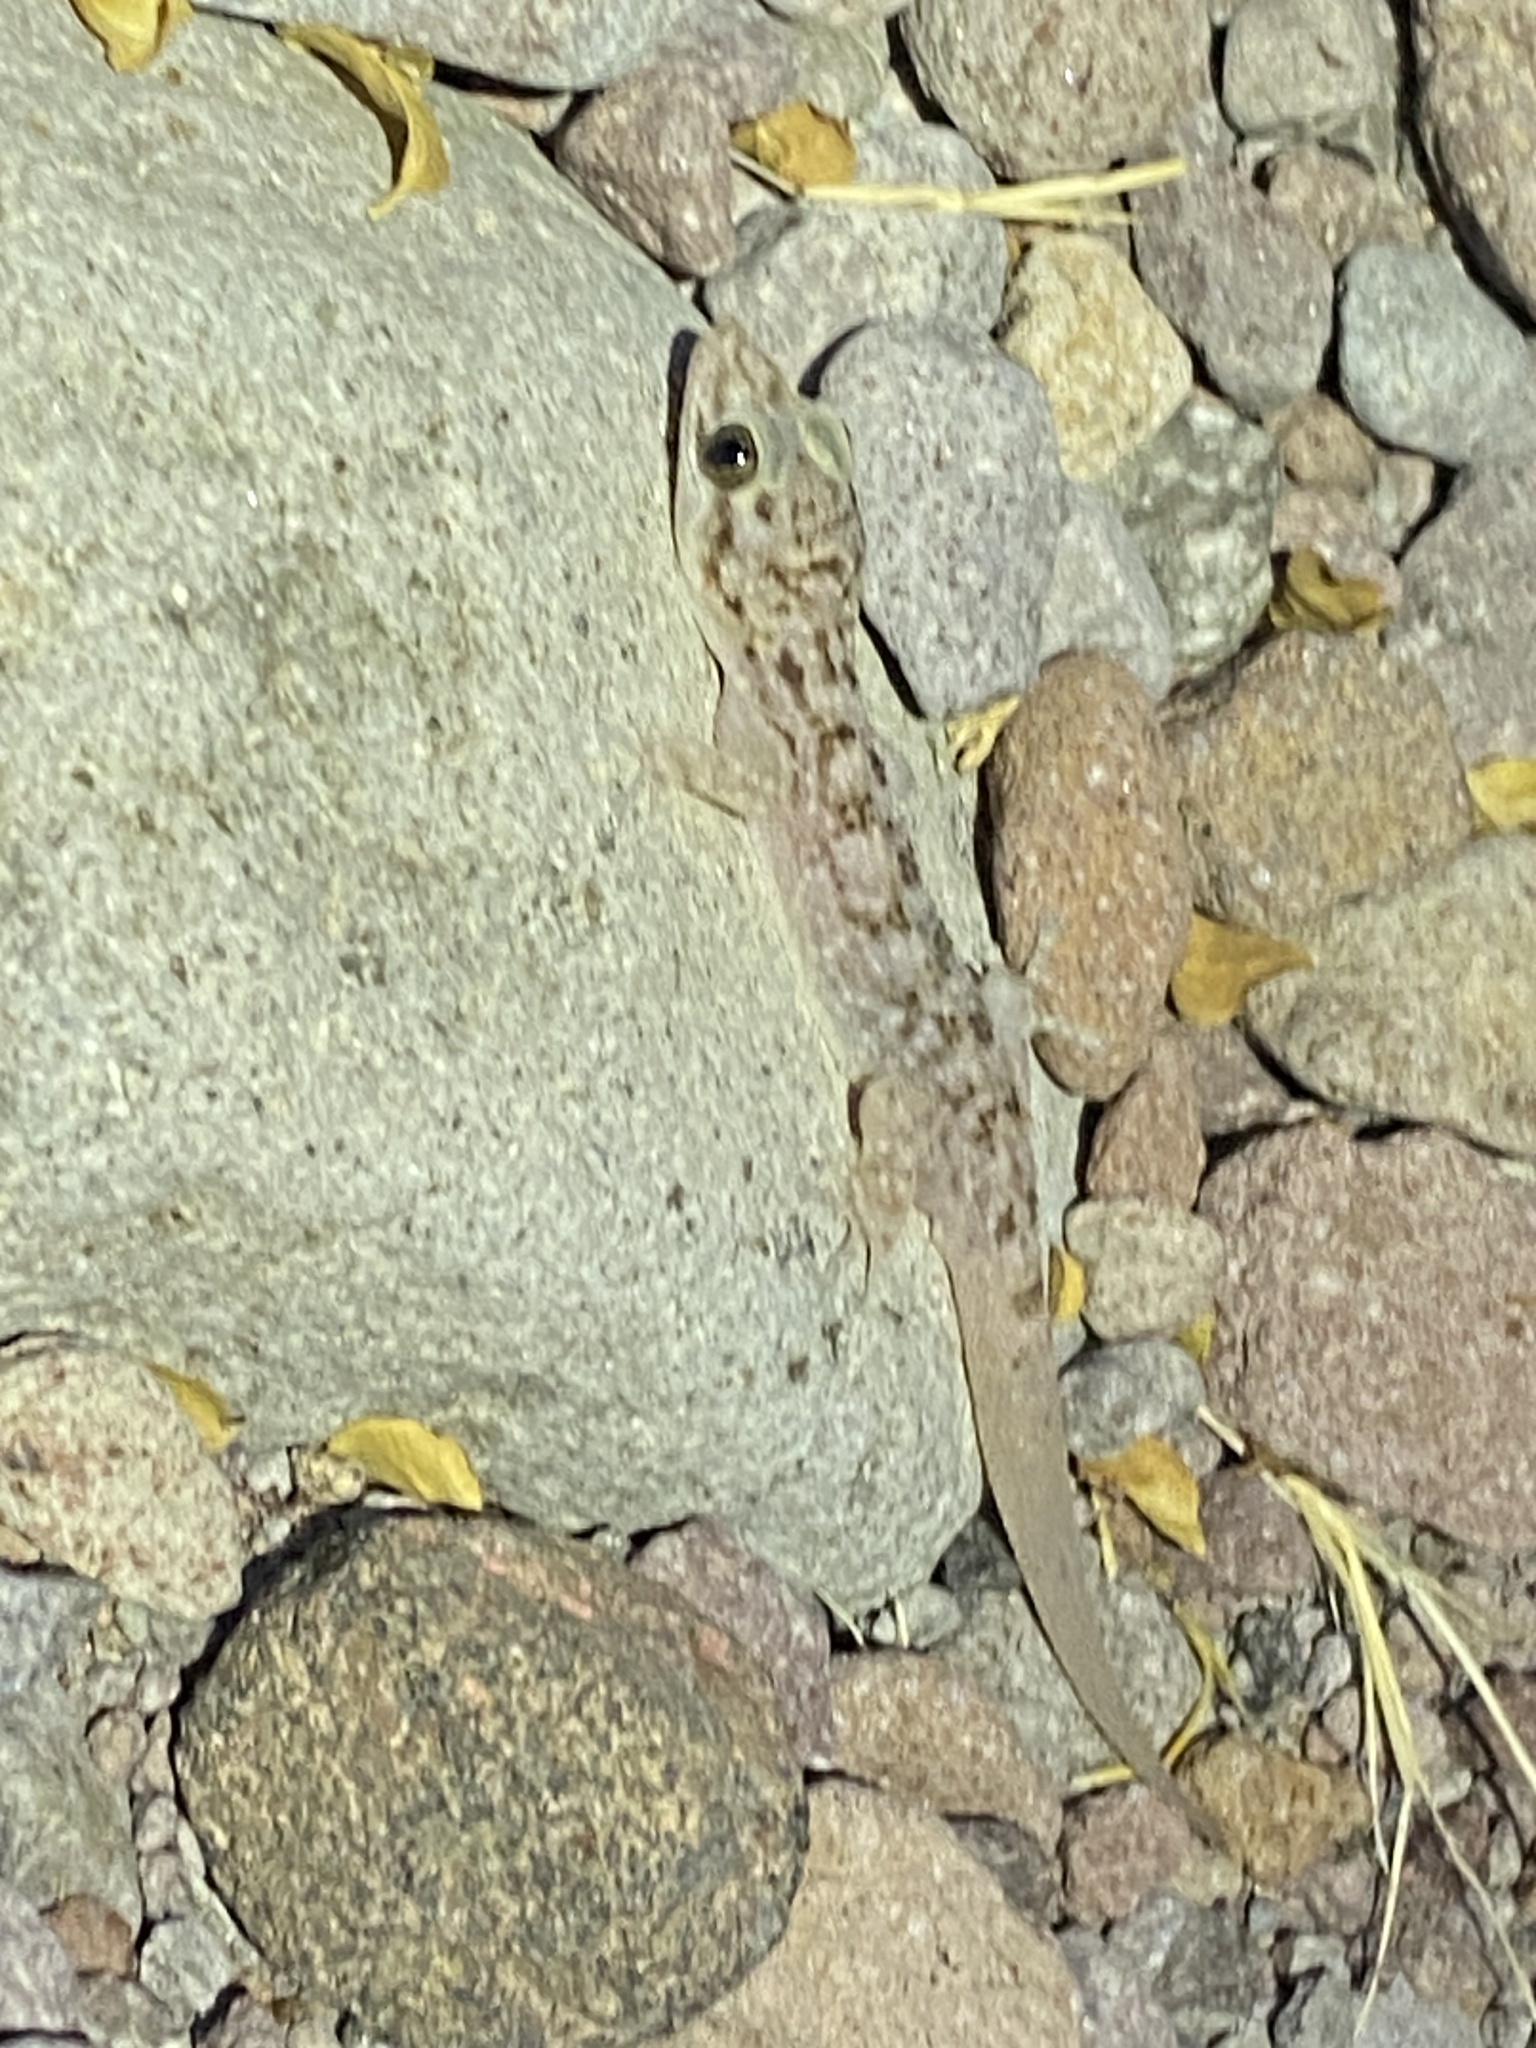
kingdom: Animalia
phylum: Chordata
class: Squamata
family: Phyllodactylidae
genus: Phyllodactylus
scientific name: Phyllodactylus nocticolus
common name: Peninsula leaf-toed gecko
